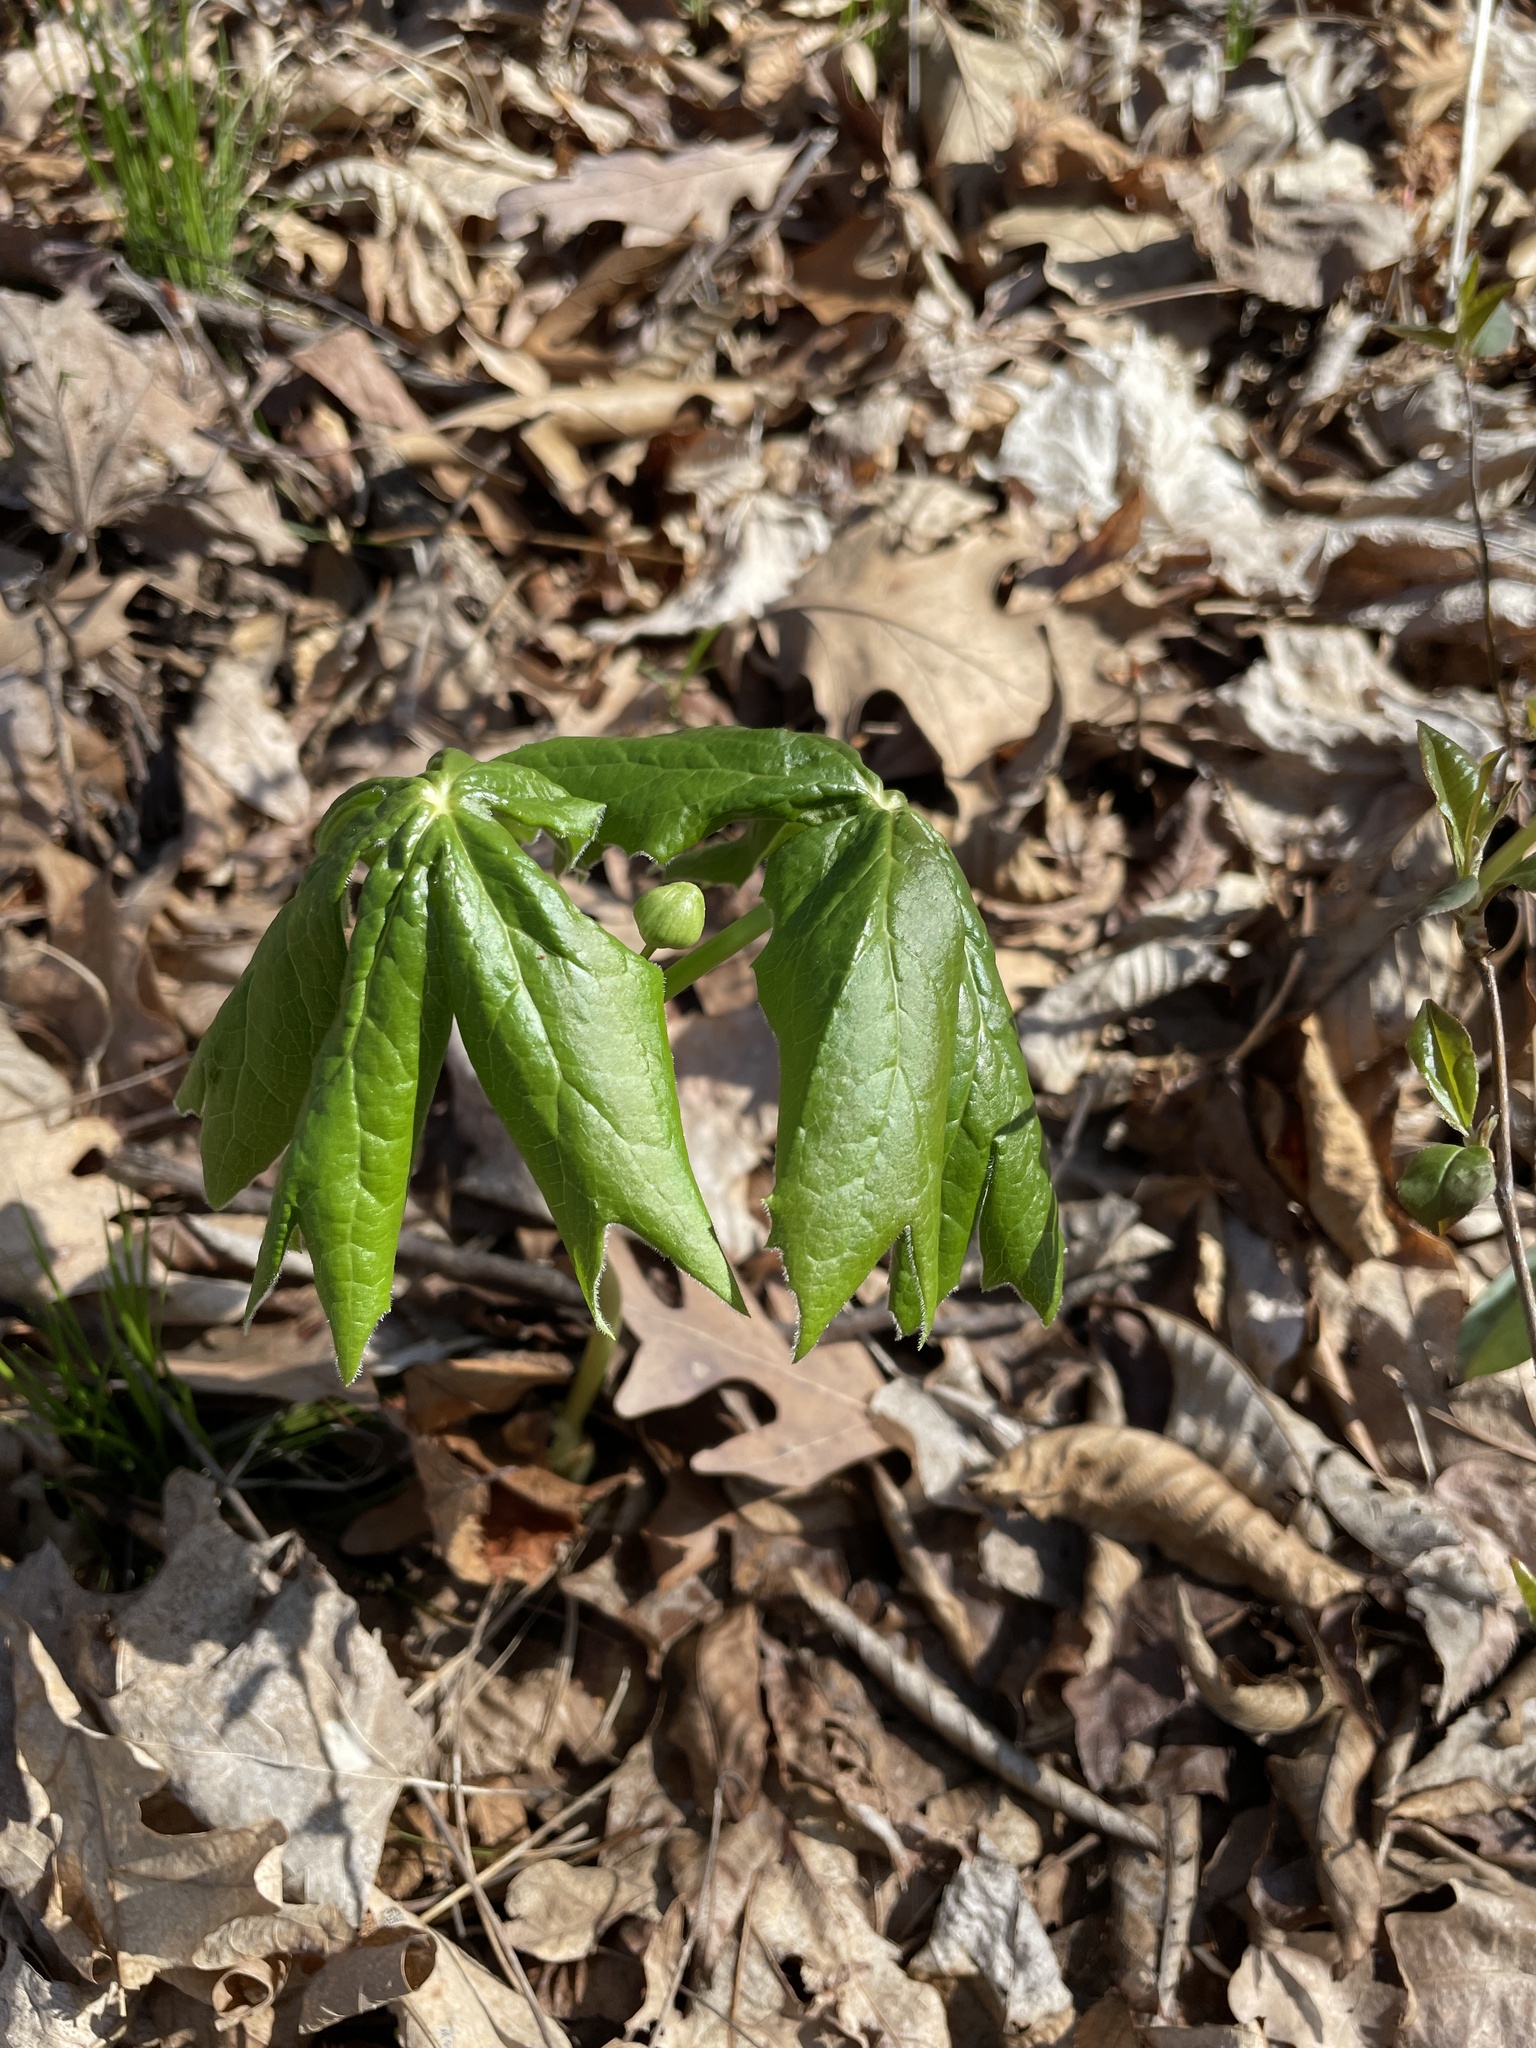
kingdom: Plantae
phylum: Tracheophyta
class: Magnoliopsida
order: Ranunculales
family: Berberidaceae
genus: Podophyllum
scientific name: Podophyllum peltatum
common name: Wild mandrake
